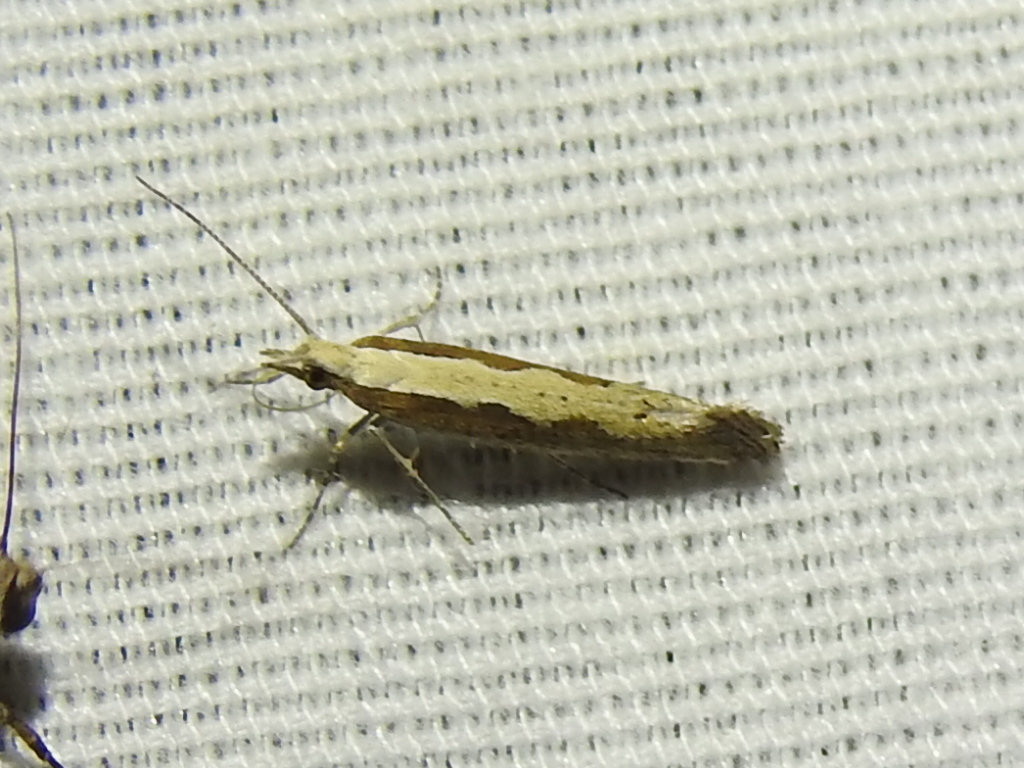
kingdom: Animalia
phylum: Arthropoda
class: Insecta
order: Lepidoptera
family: Plutellidae
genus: Plutella
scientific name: Plutella xylostella
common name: Diamond-back moth
